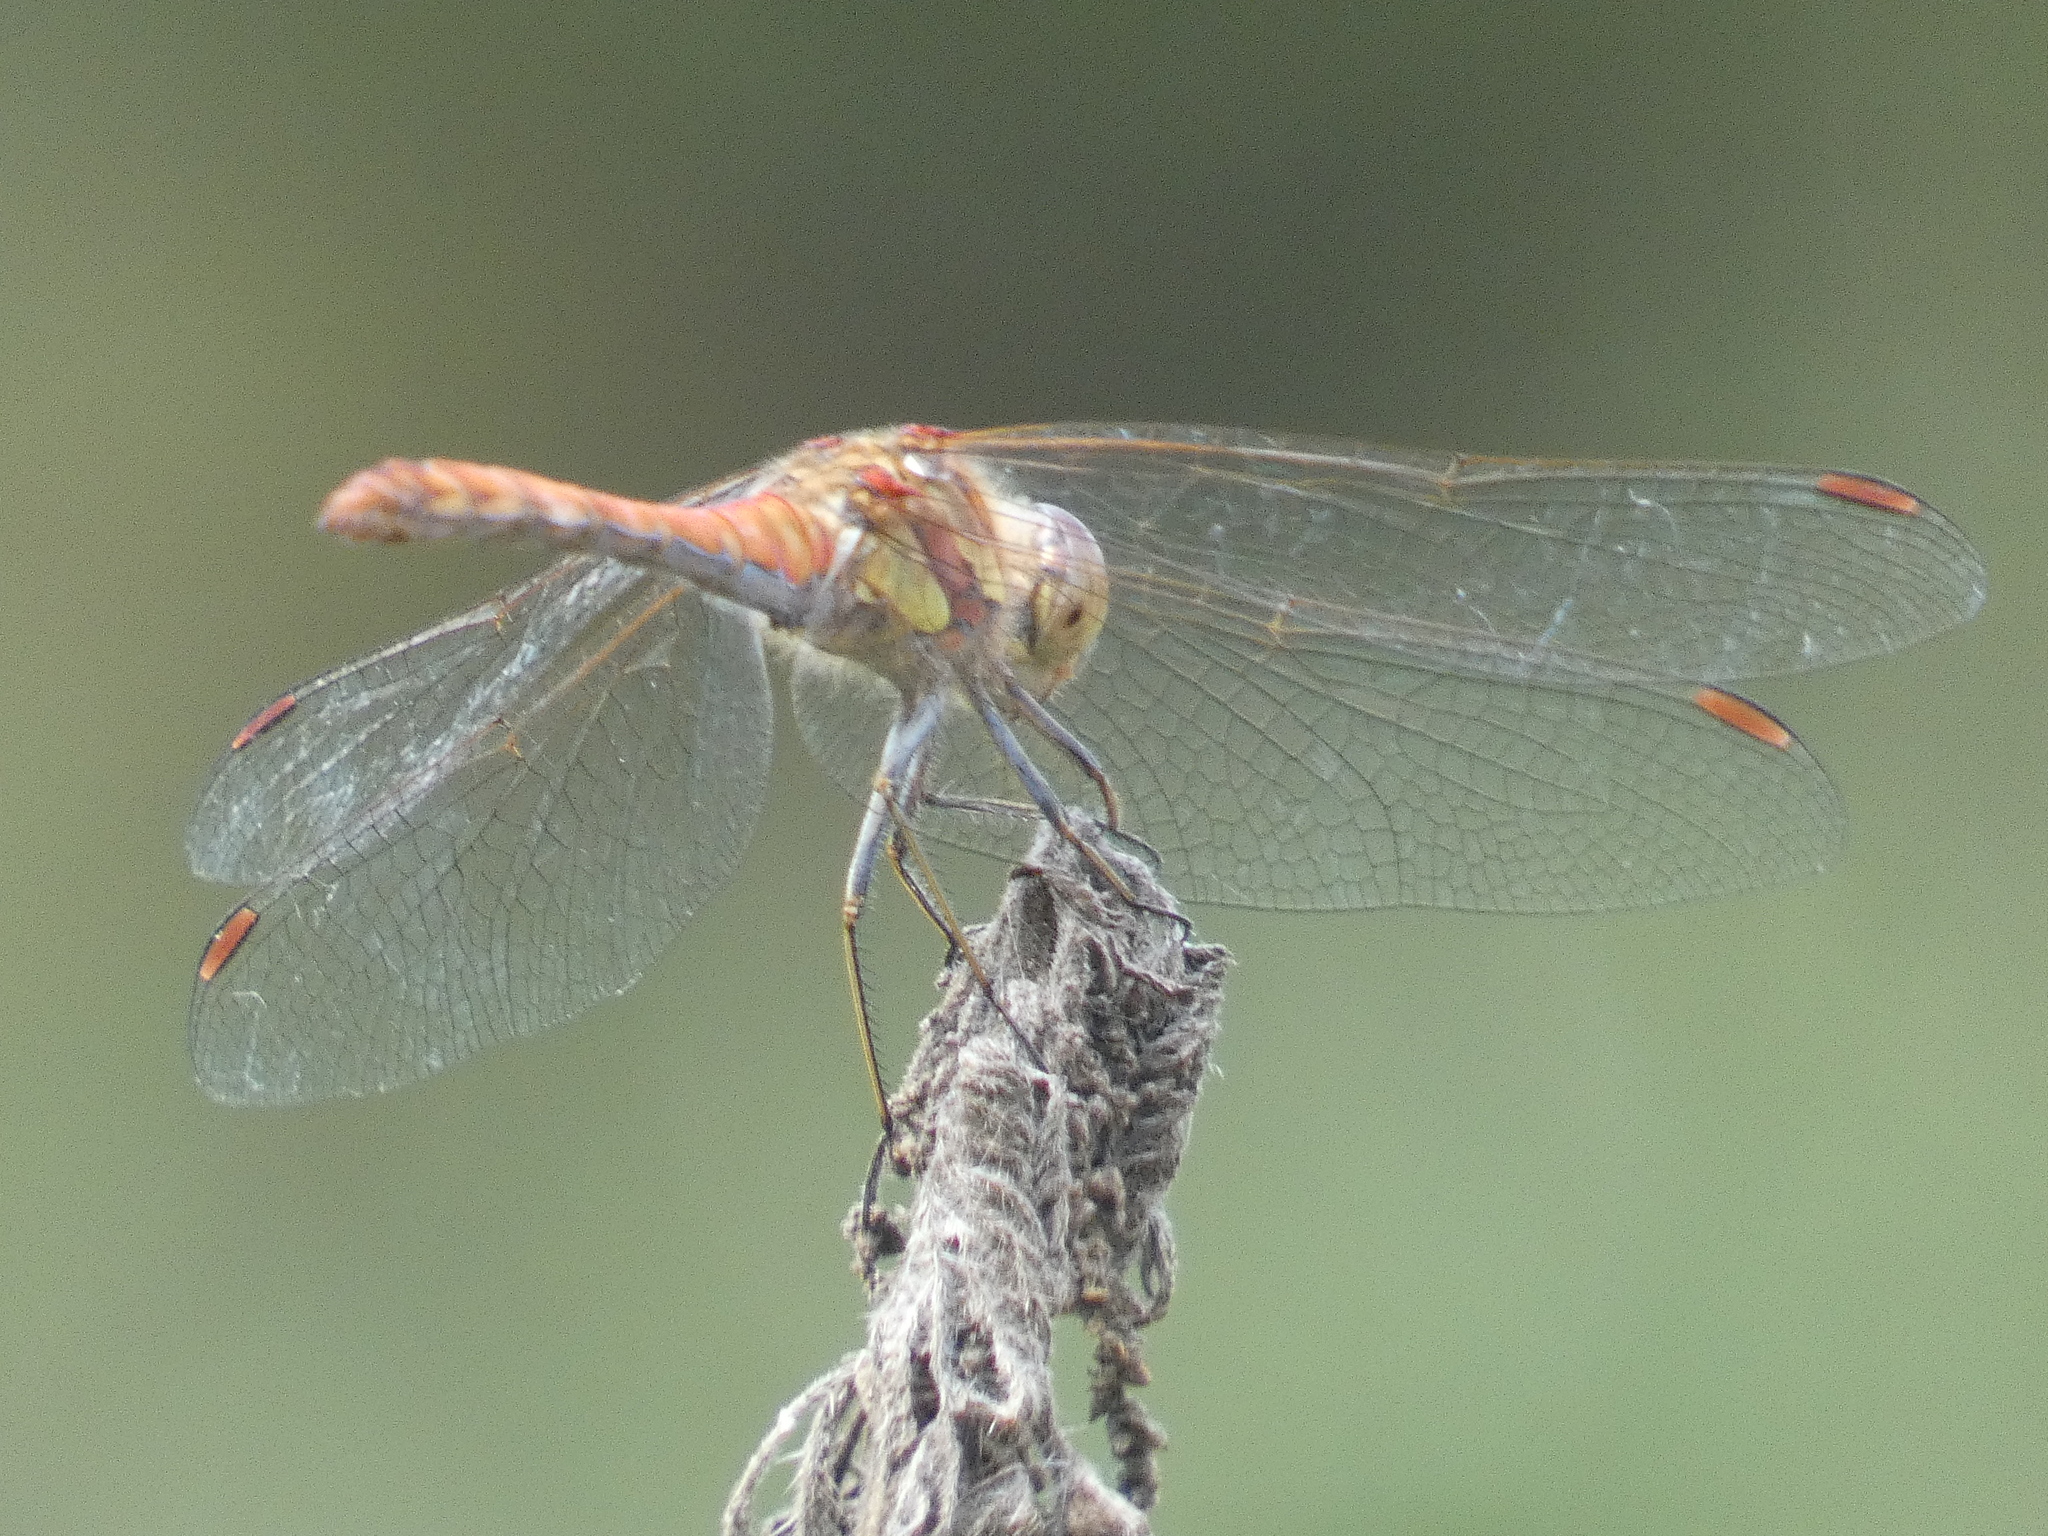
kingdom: Animalia
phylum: Arthropoda
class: Insecta
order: Odonata
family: Libellulidae
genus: Sympetrum
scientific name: Sympetrum striolatum
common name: Common darter
